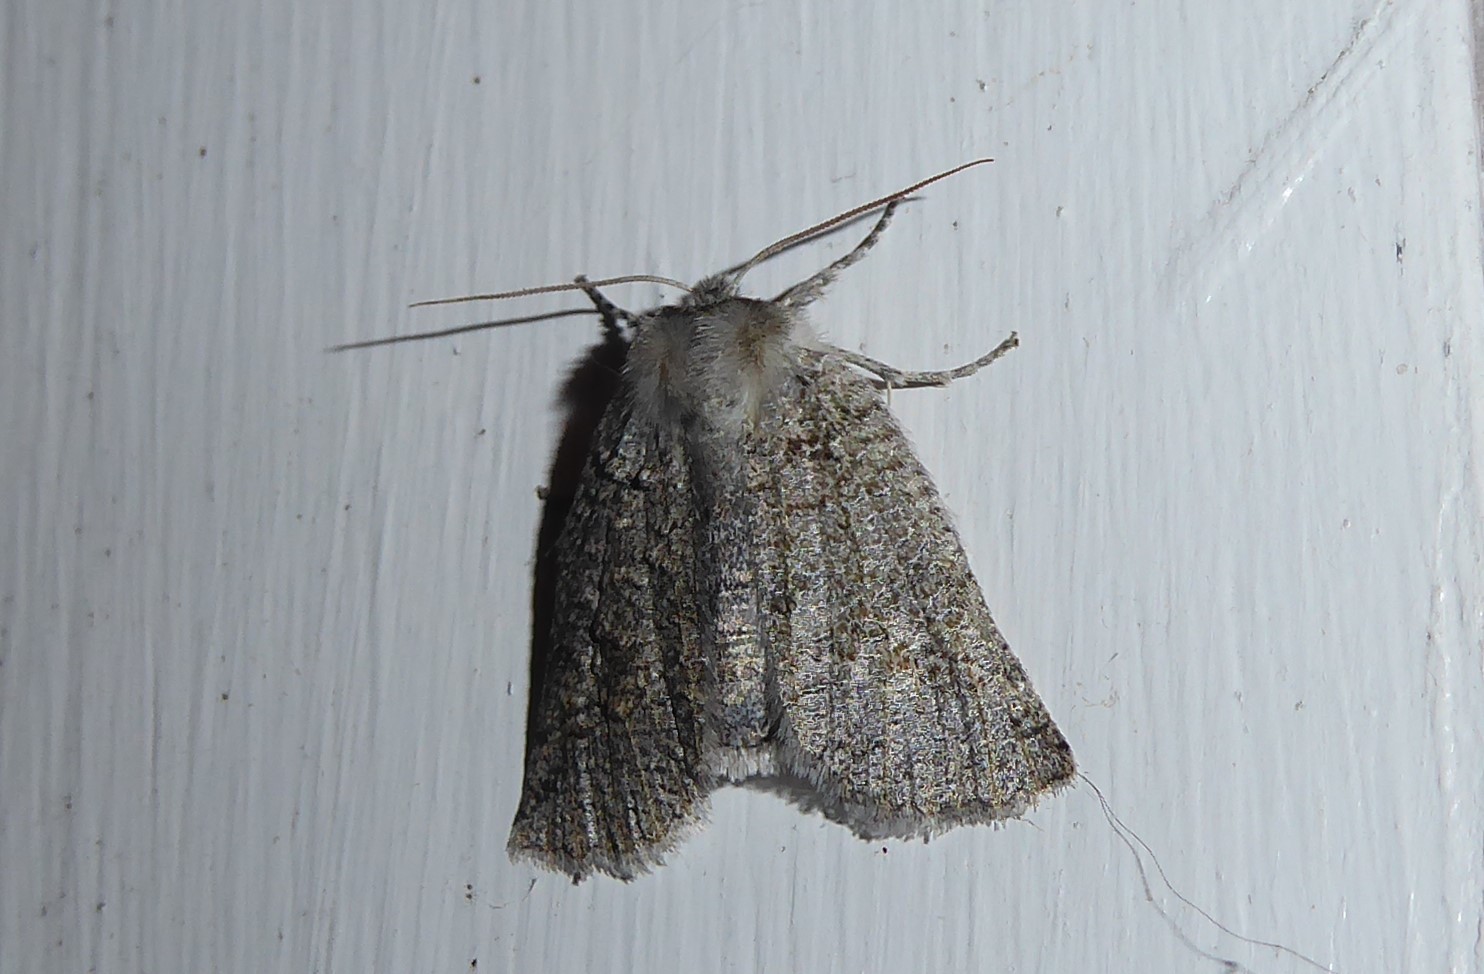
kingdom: Animalia
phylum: Arthropoda
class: Insecta
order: Lepidoptera
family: Geometridae
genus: Declana
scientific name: Declana floccosa
